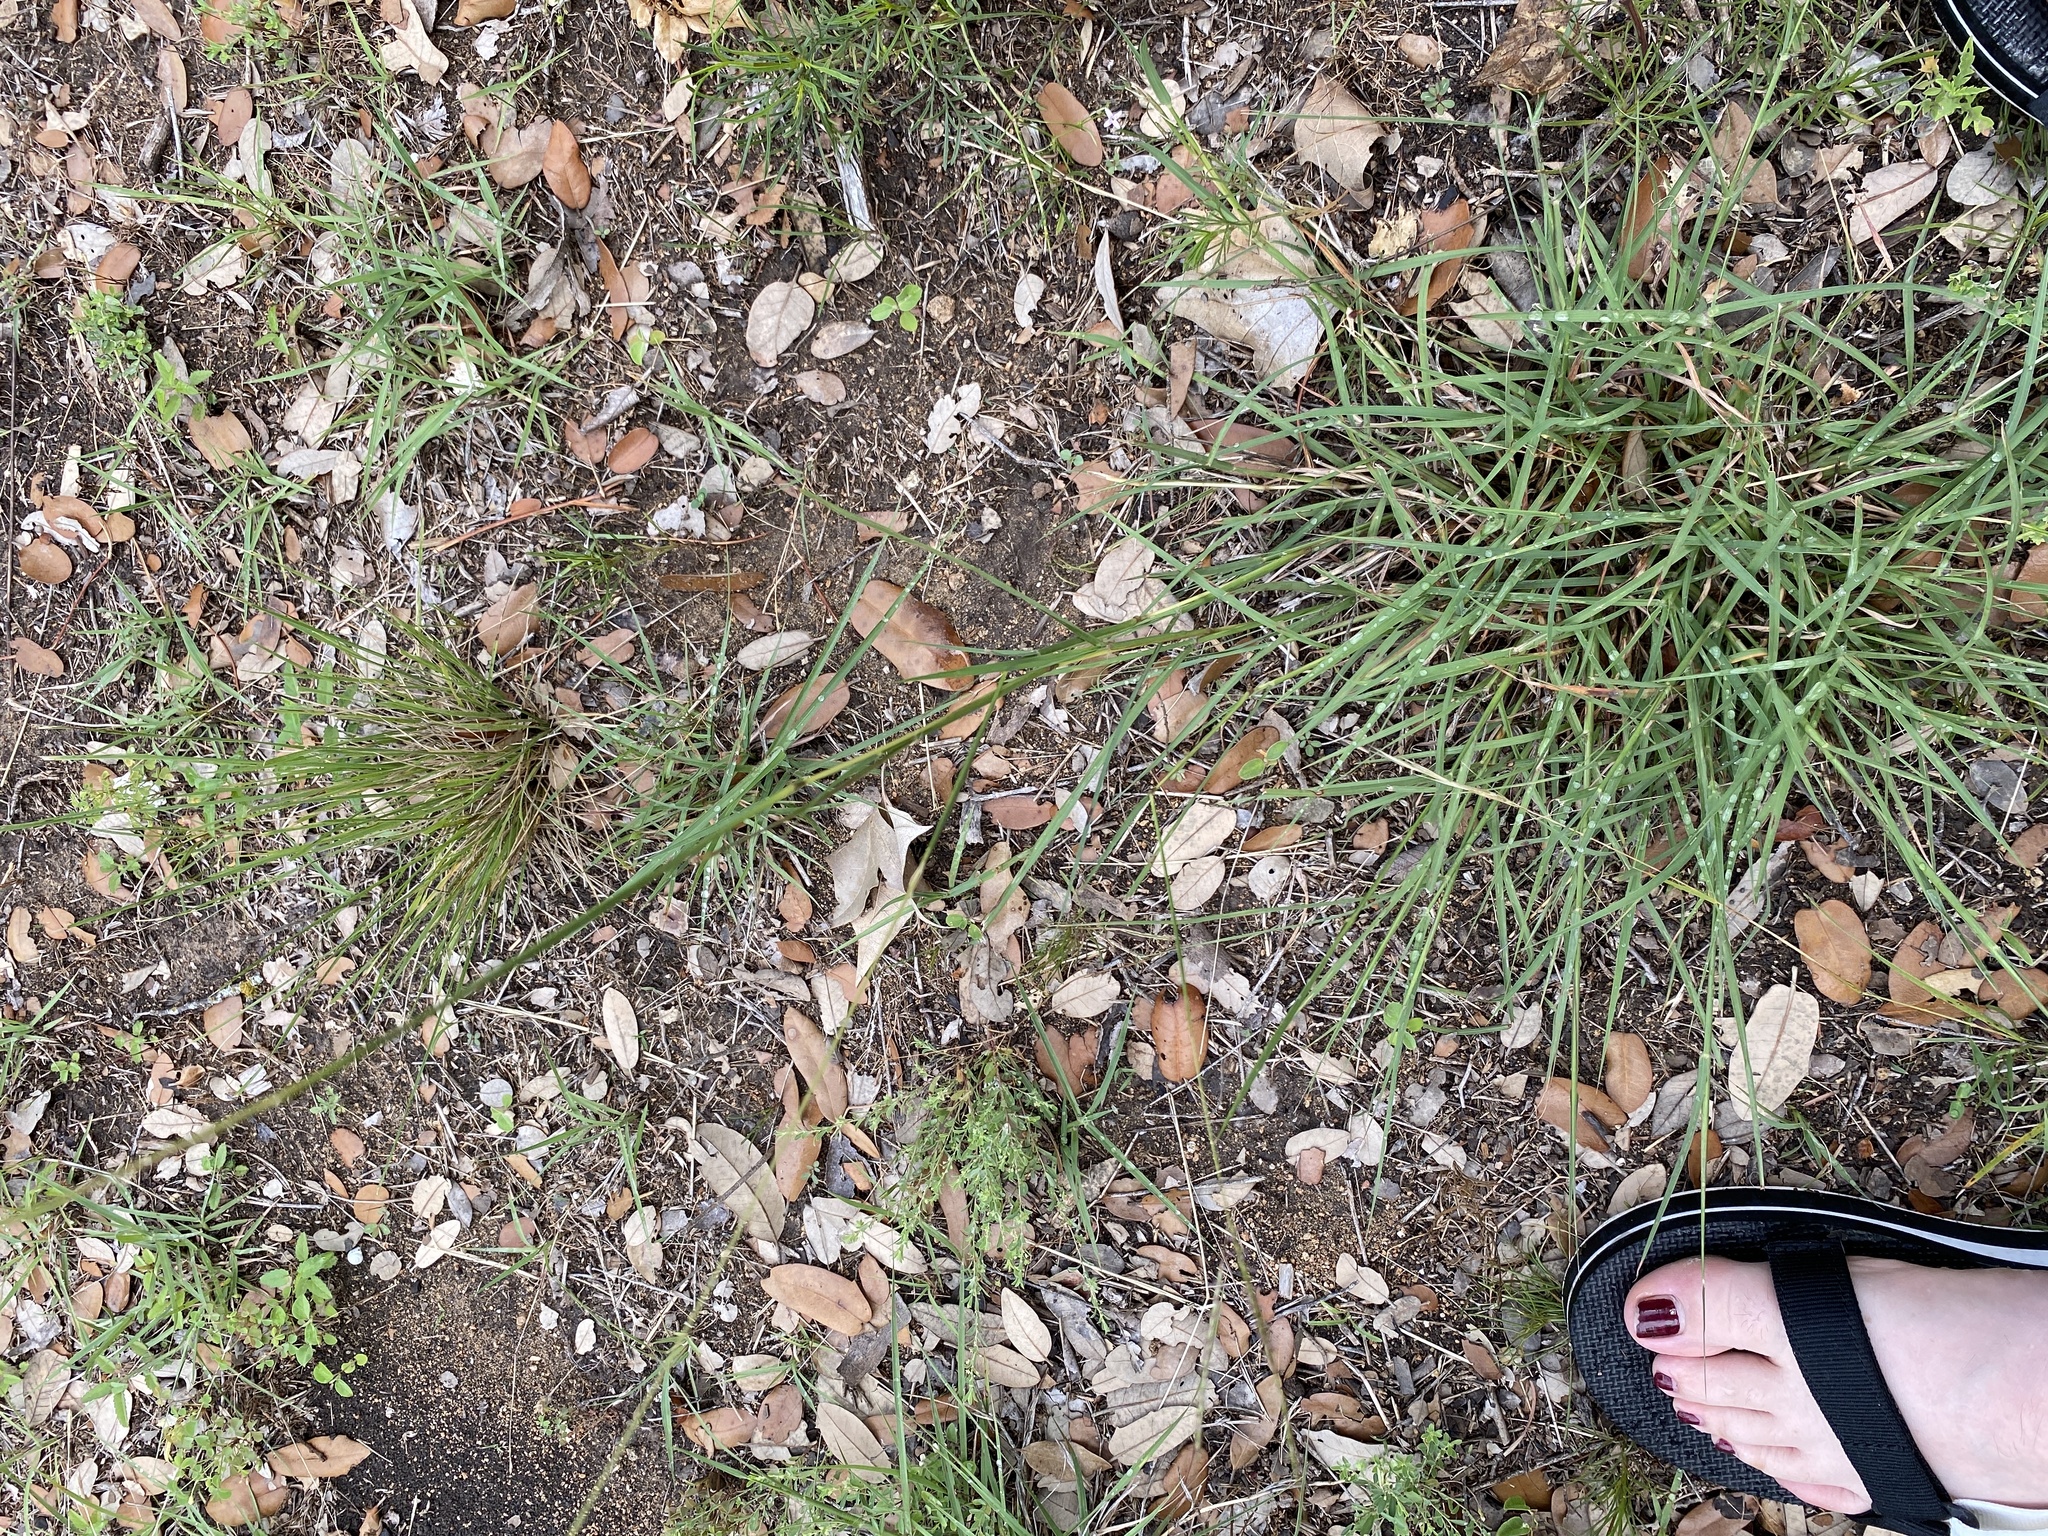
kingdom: Plantae
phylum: Tracheophyta
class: Liliopsida
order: Poales
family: Poaceae
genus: Bothriochloa
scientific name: Bothriochloa ischaemum
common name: Yellow bluestem
